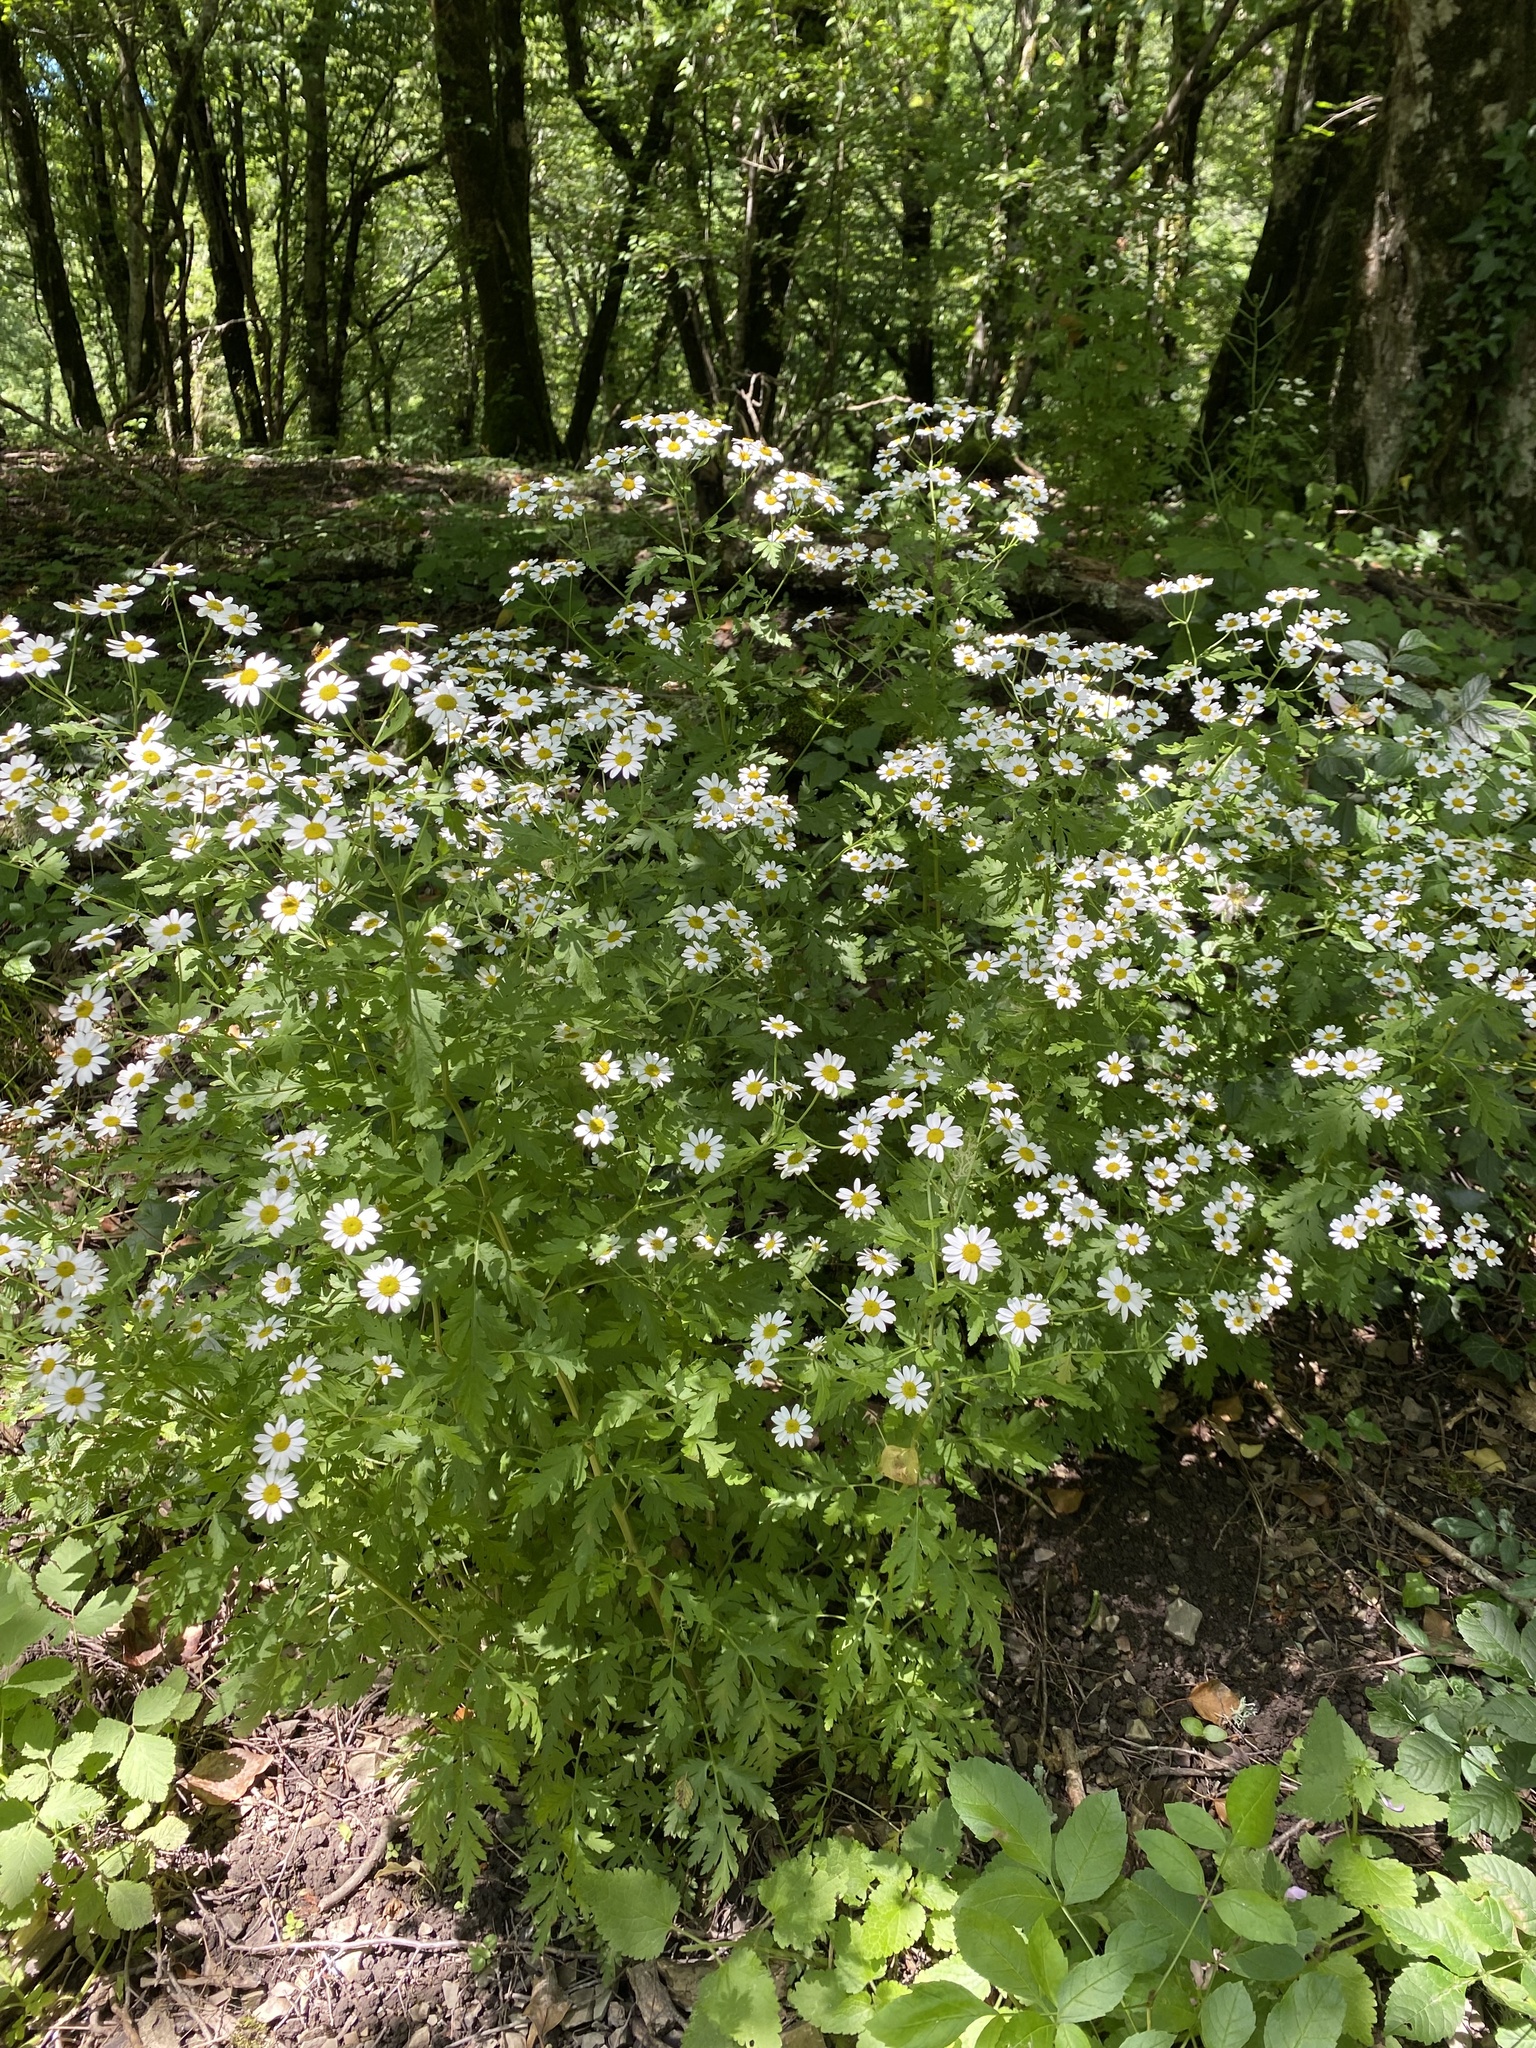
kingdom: Plantae
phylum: Tracheophyta
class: Magnoliopsida
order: Asterales
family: Asteraceae
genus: Tanacetum
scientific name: Tanacetum parthenium
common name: Feverfew
